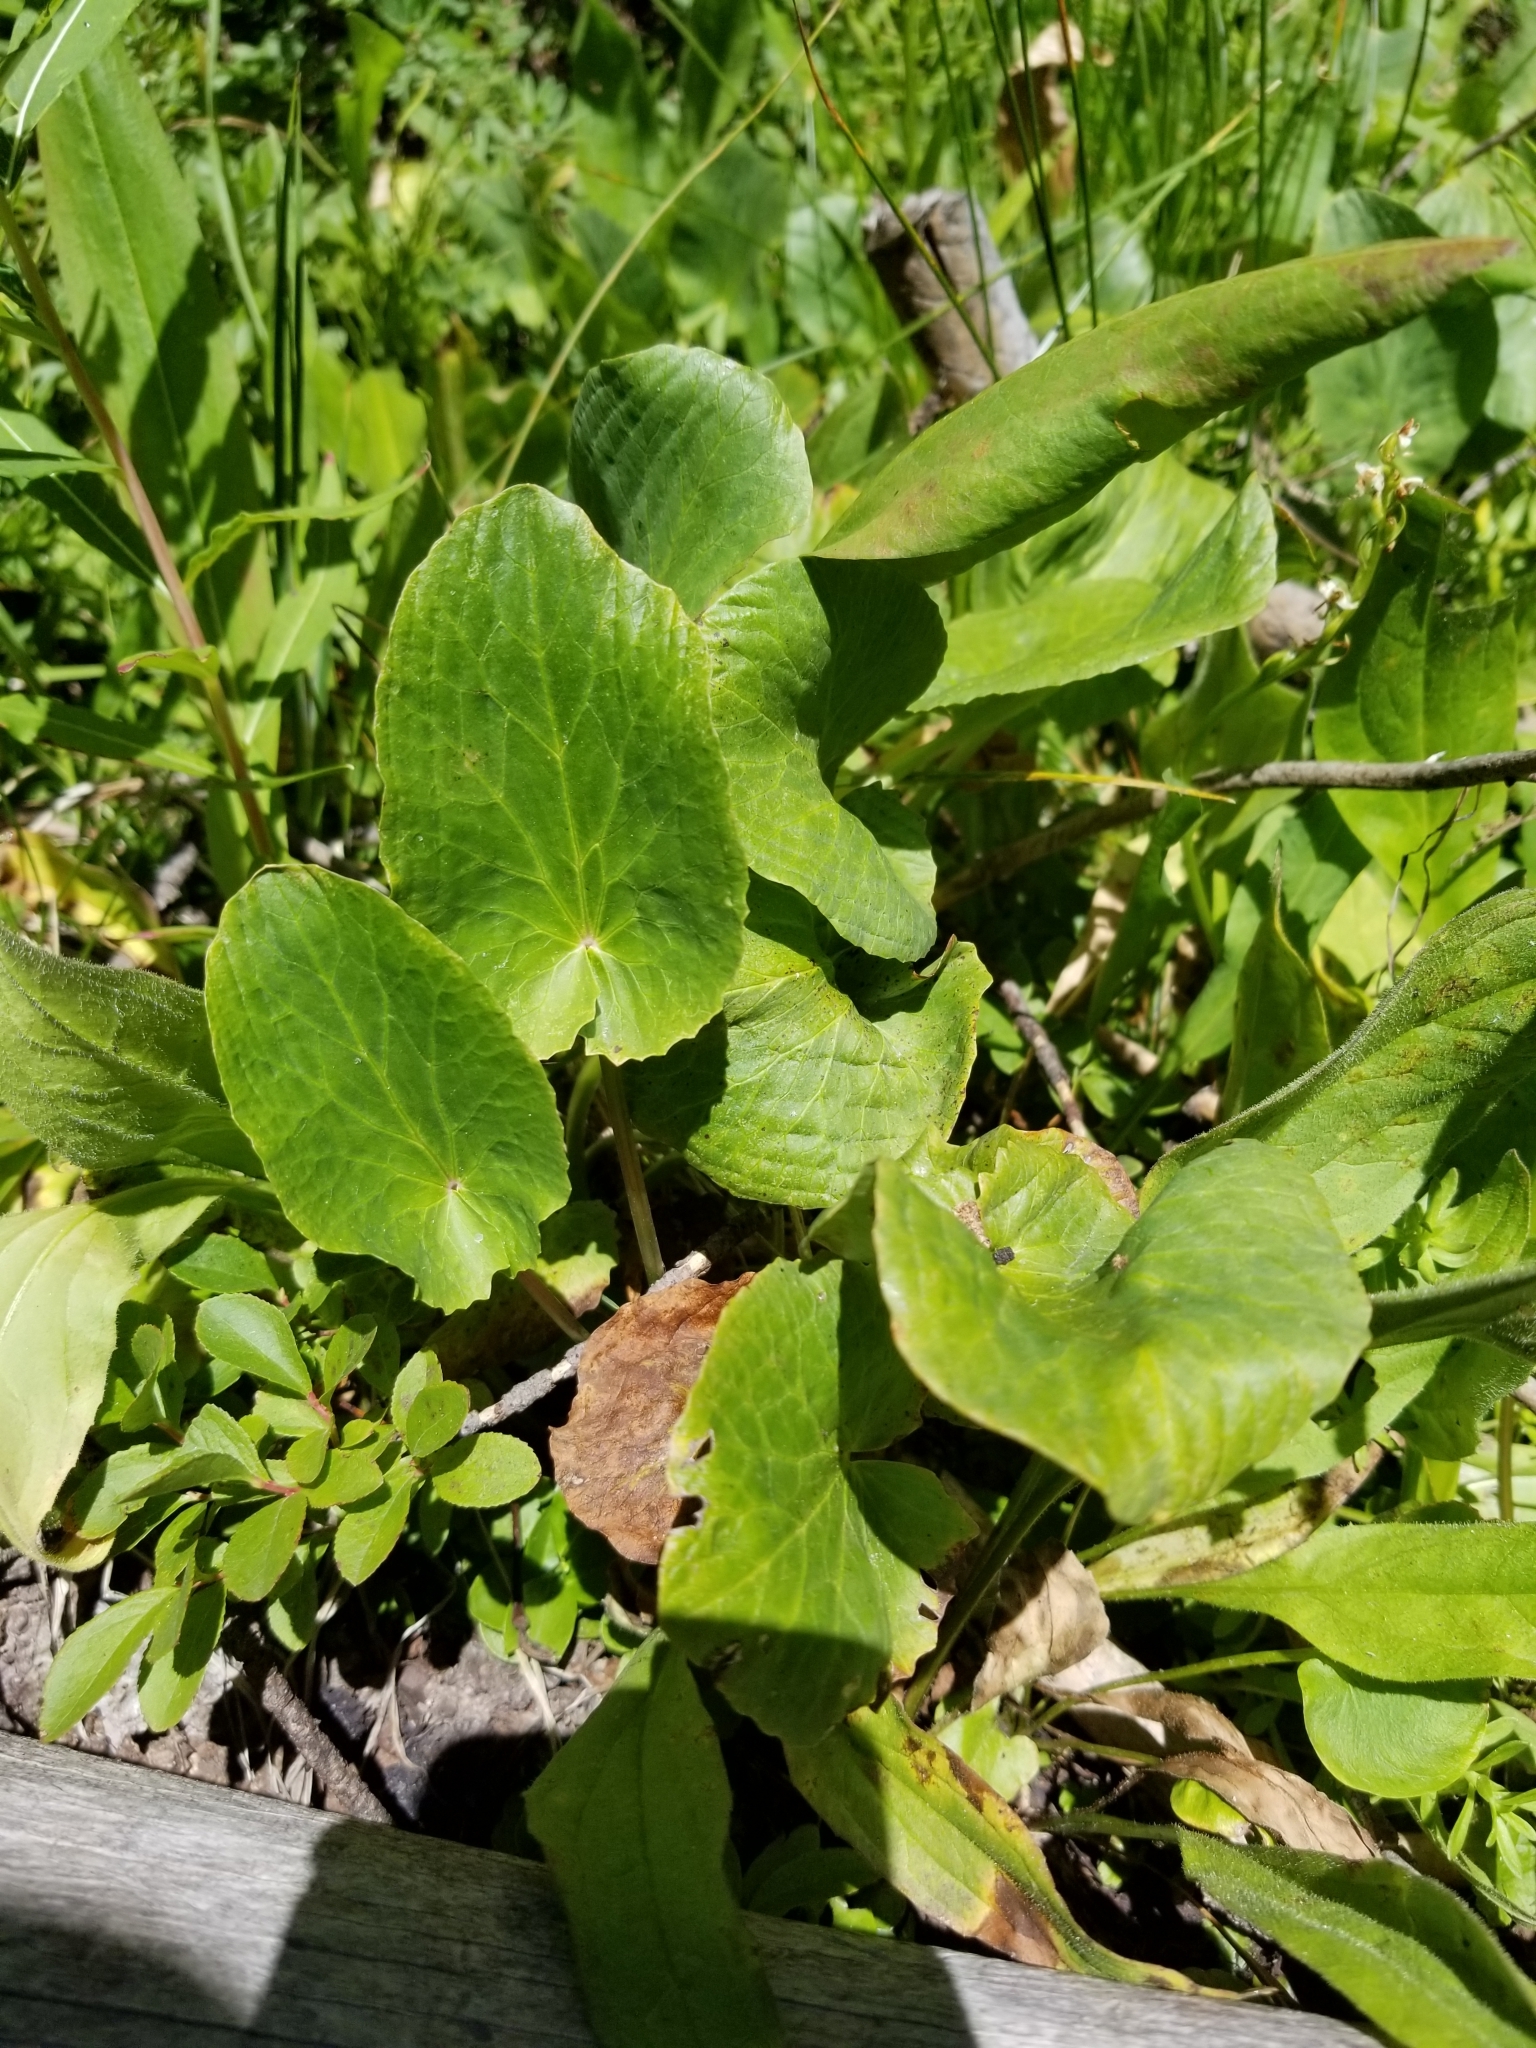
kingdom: Plantae
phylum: Tracheophyta
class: Magnoliopsida
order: Ranunculales
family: Ranunculaceae
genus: Caltha
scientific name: Caltha leptosepala
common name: Elkslip
